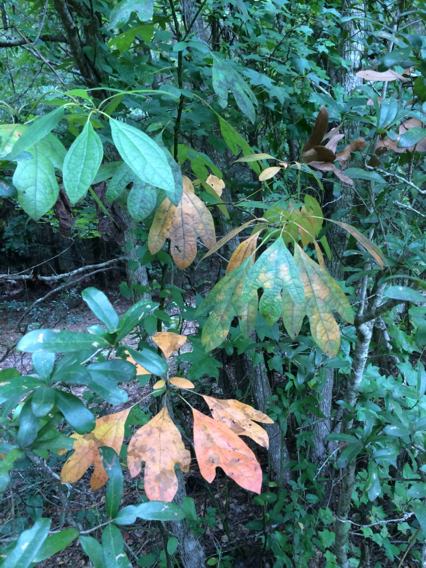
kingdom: Plantae
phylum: Tracheophyta
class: Magnoliopsida
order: Laurales
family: Lauraceae
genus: Sassafras
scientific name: Sassafras albidum
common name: Sassafras
